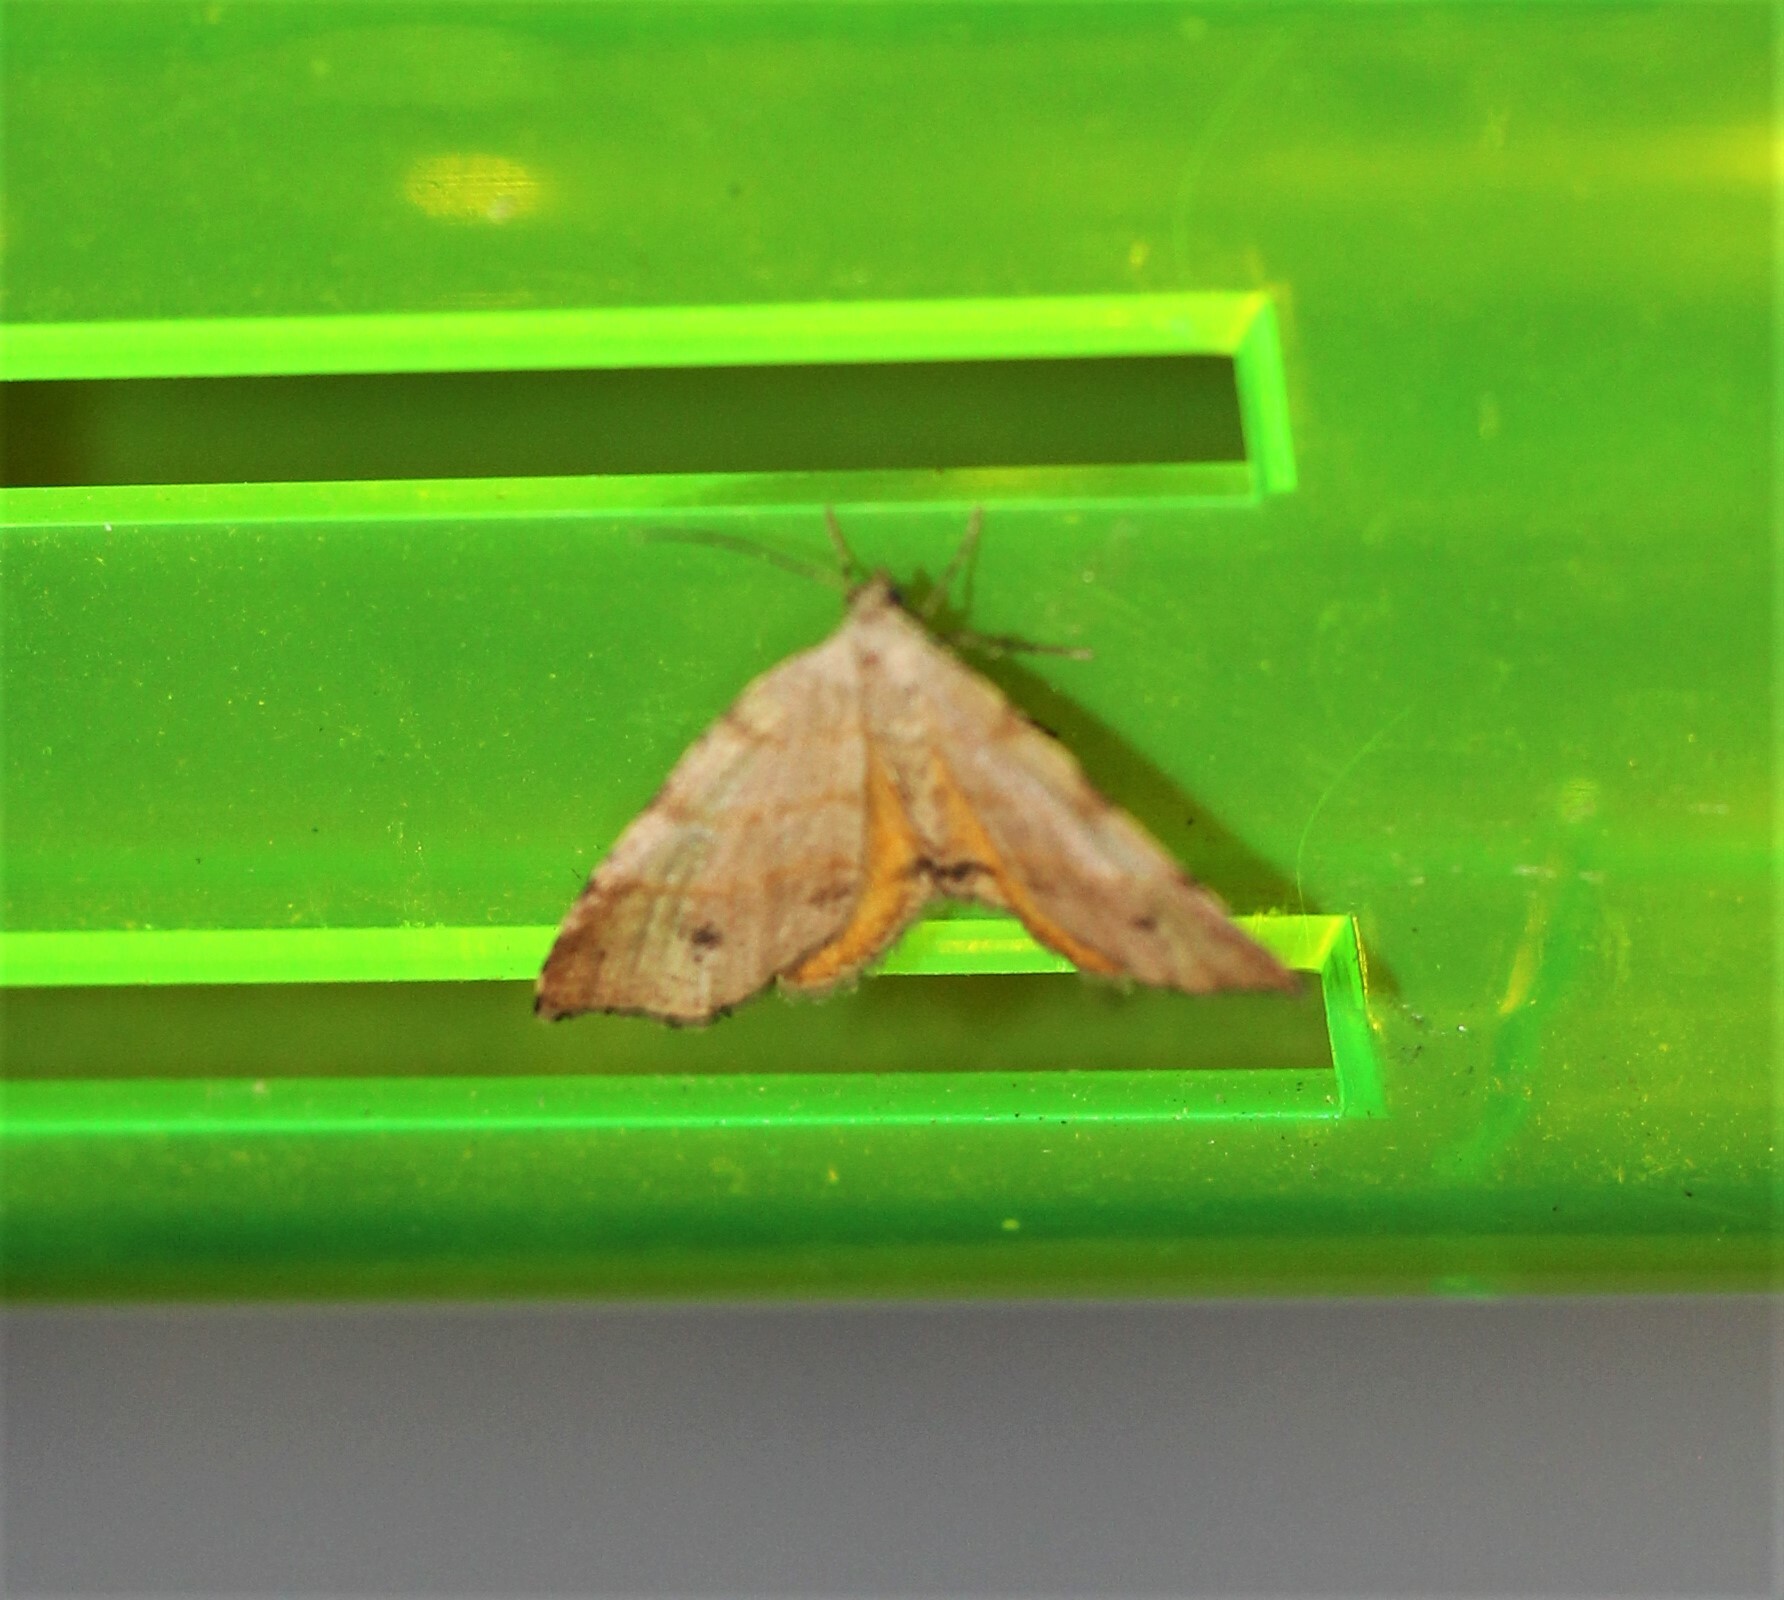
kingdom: Animalia
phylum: Arthropoda
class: Insecta
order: Lepidoptera
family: Geometridae
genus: Mellilla
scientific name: Mellilla xanthometata
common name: Orange wing moth
